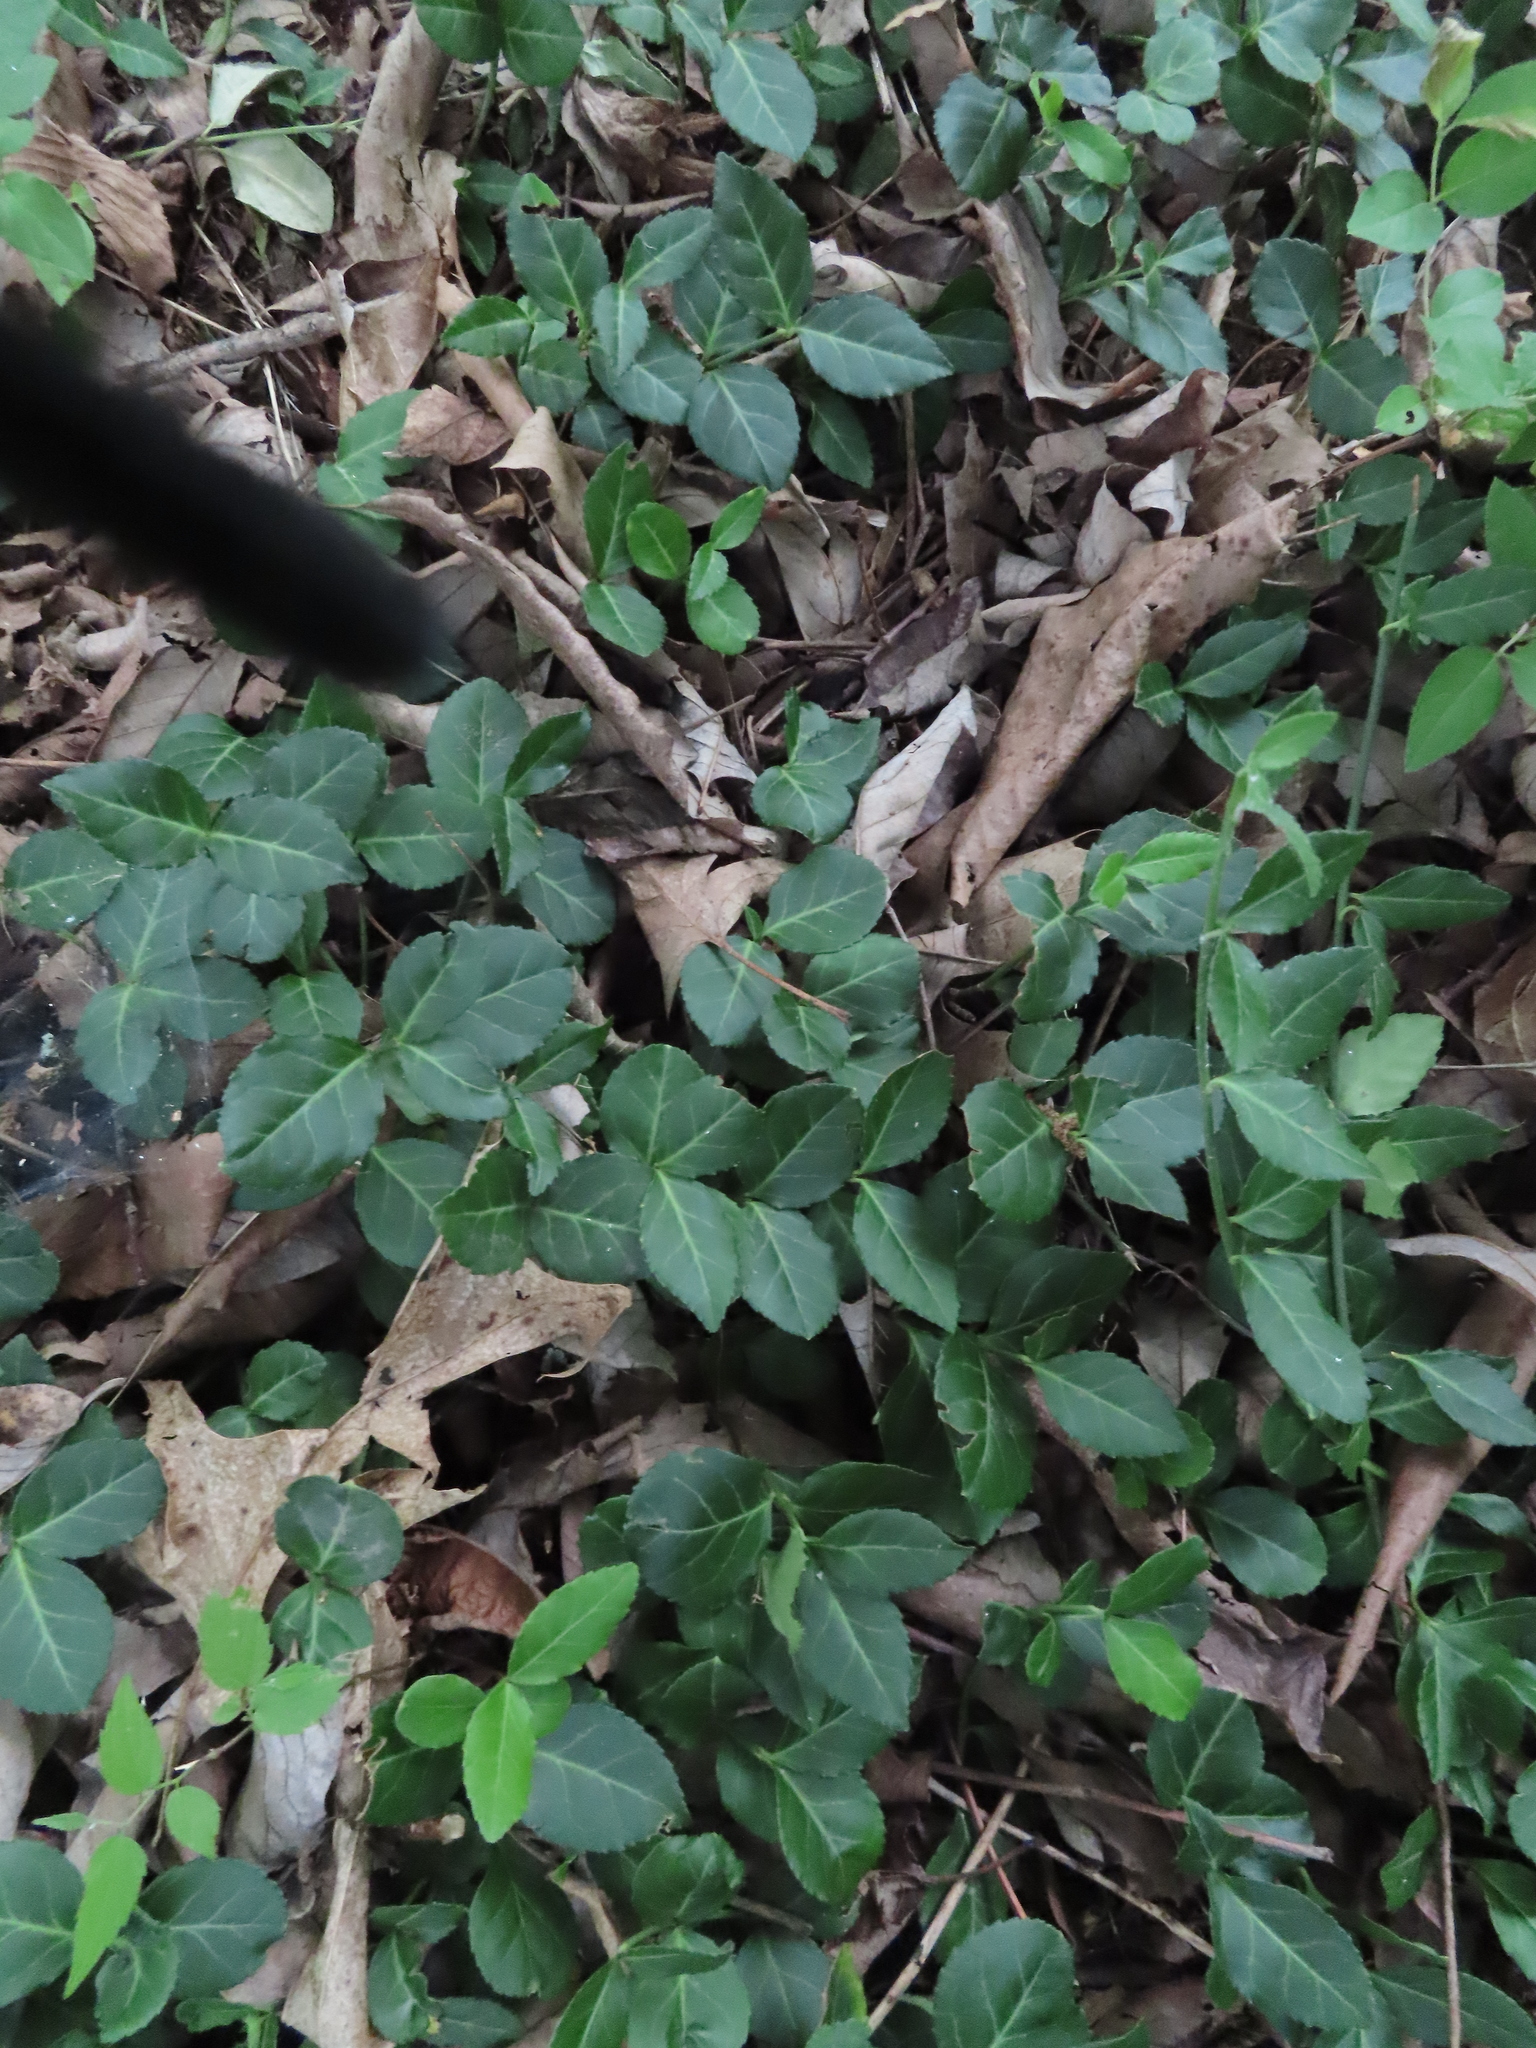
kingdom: Plantae
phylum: Tracheophyta
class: Magnoliopsida
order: Celastrales
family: Celastraceae
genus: Euonymus
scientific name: Euonymus fortunei
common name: Climbing euonymus
